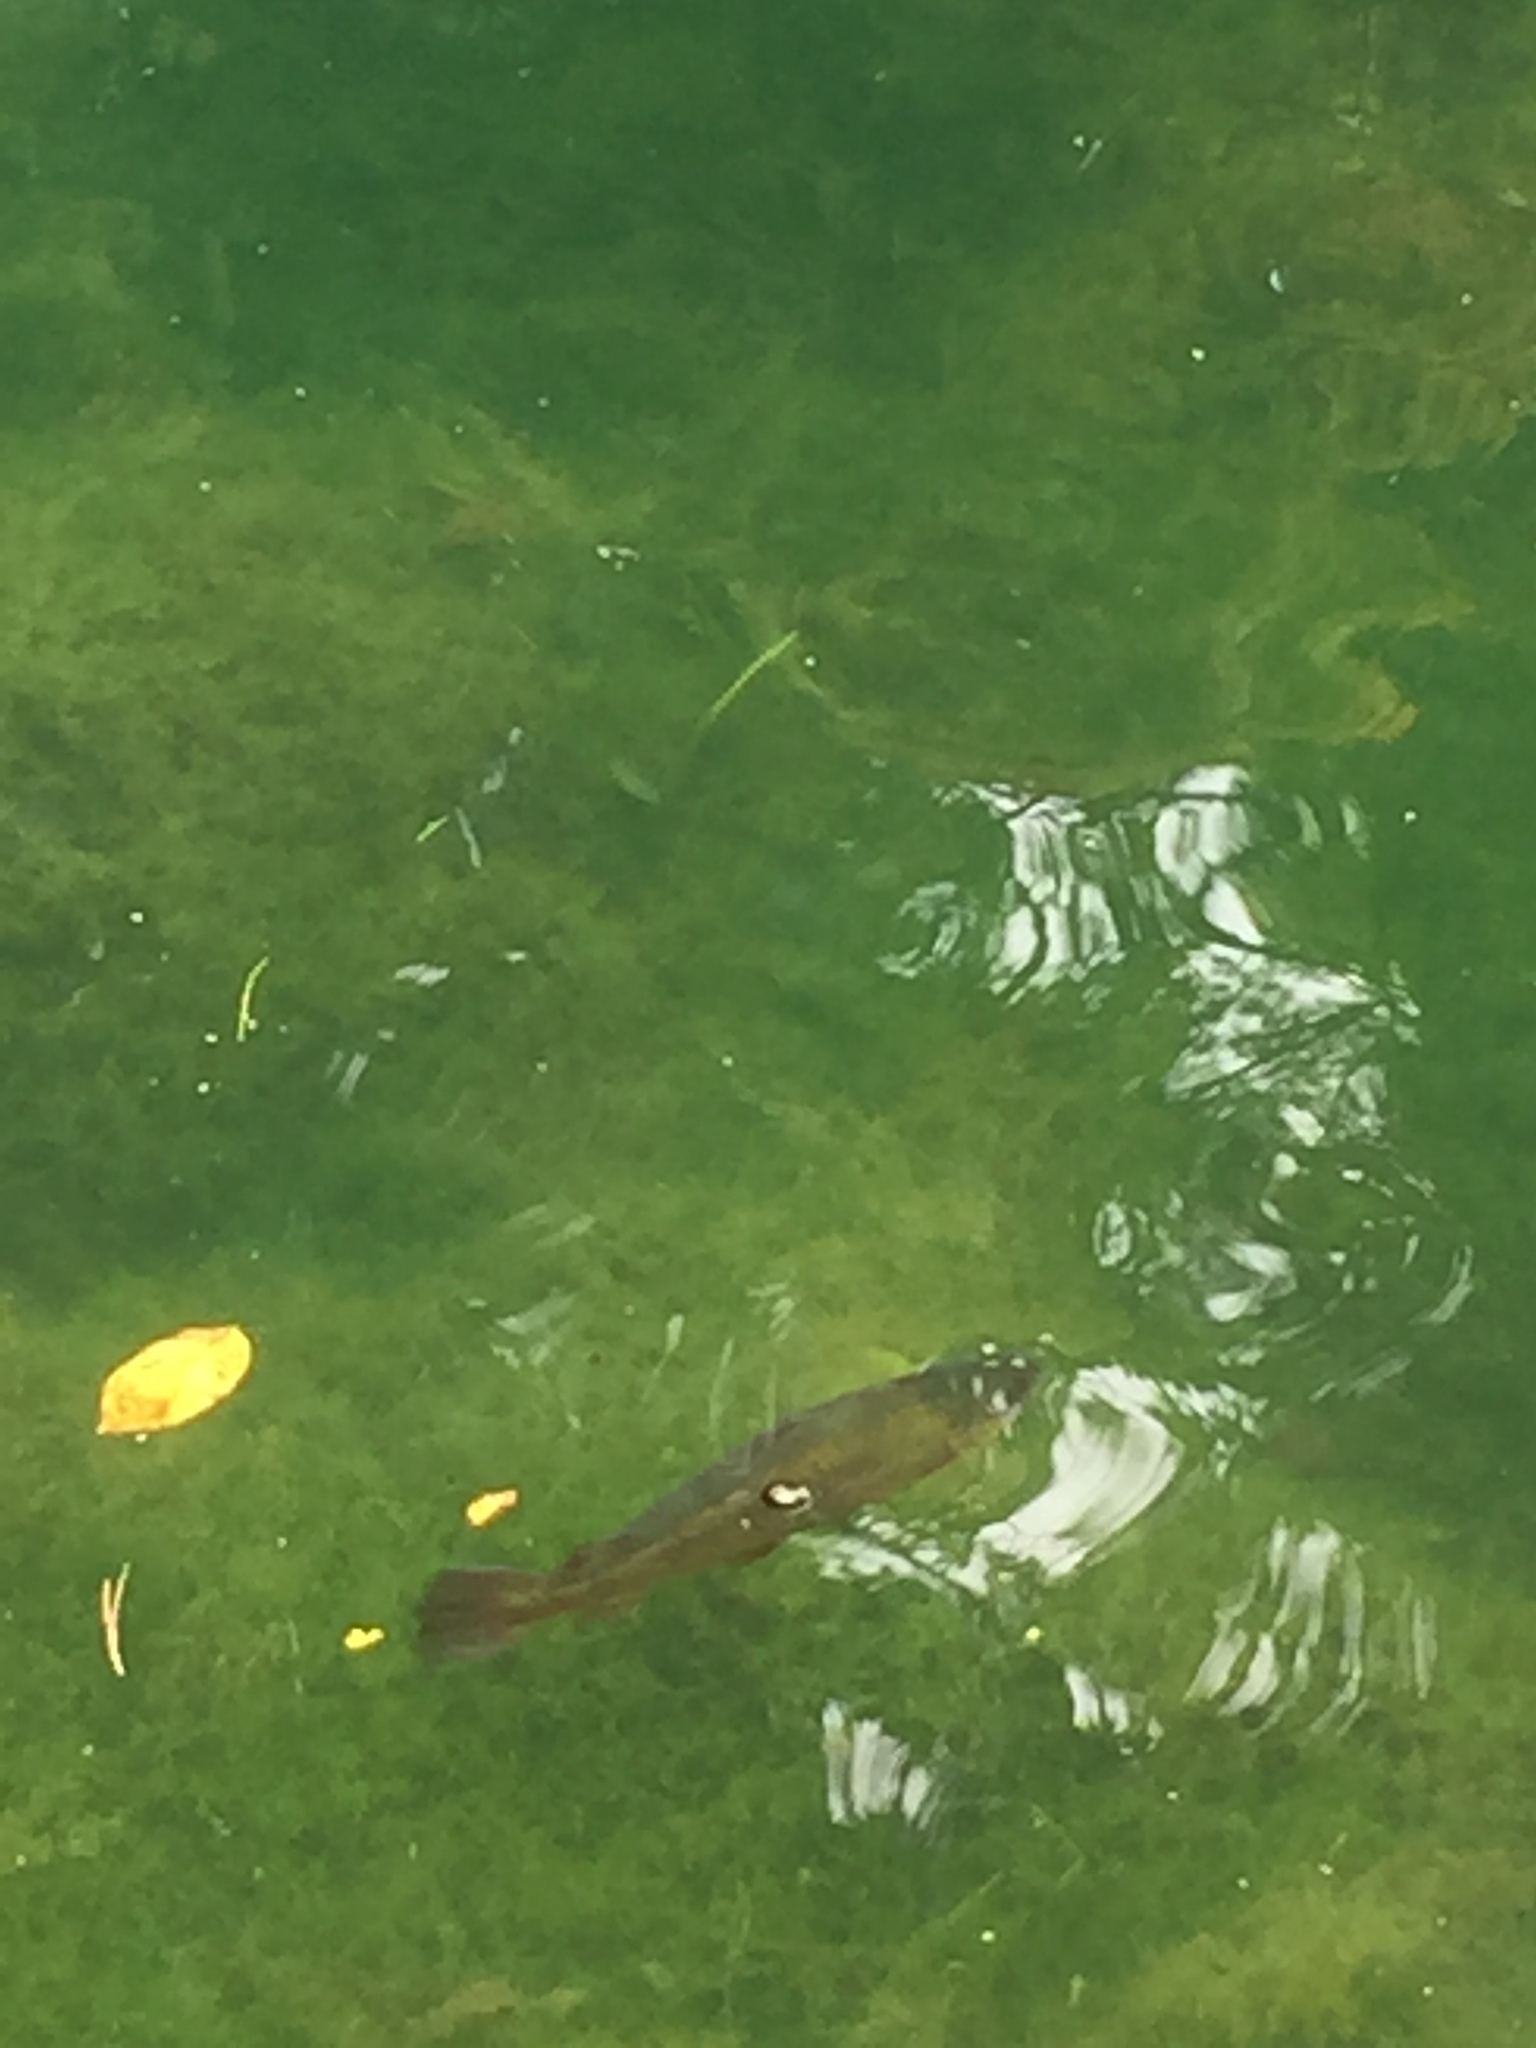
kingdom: Animalia
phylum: Chordata
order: Salmoniformes
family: Salmonidae
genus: Oncorhynchus
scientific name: Oncorhynchus mykiss
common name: Rainbow trout
